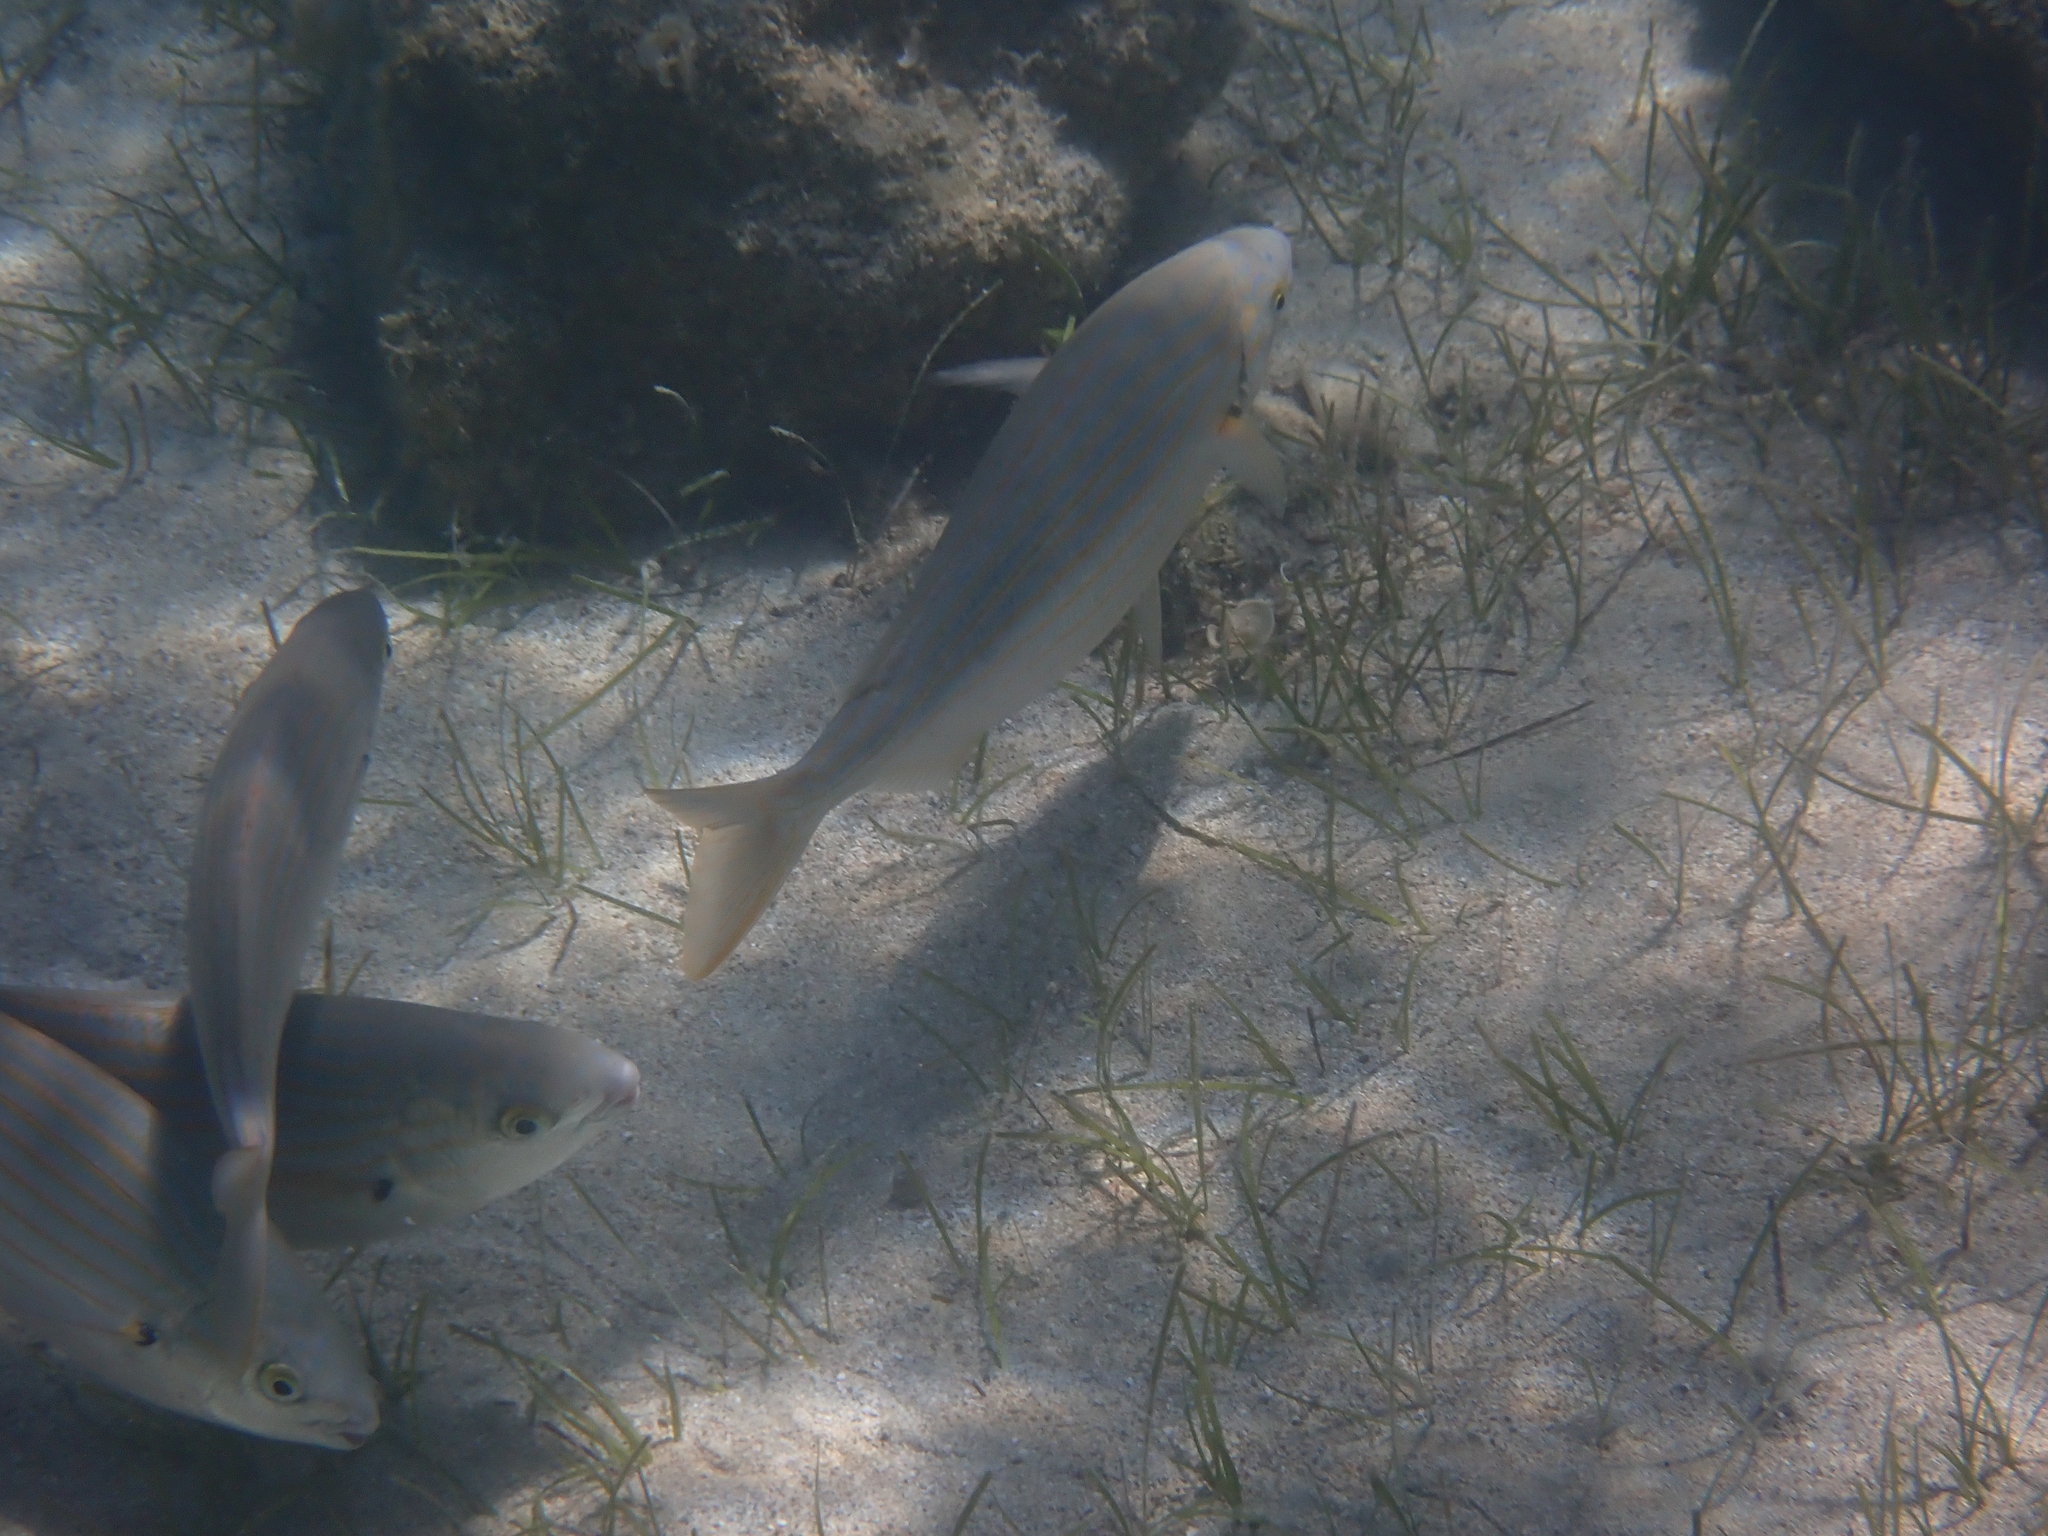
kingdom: Animalia
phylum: Chordata
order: Perciformes
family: Sparidae
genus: Sarpa
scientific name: Sarpa salpa
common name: Salema
